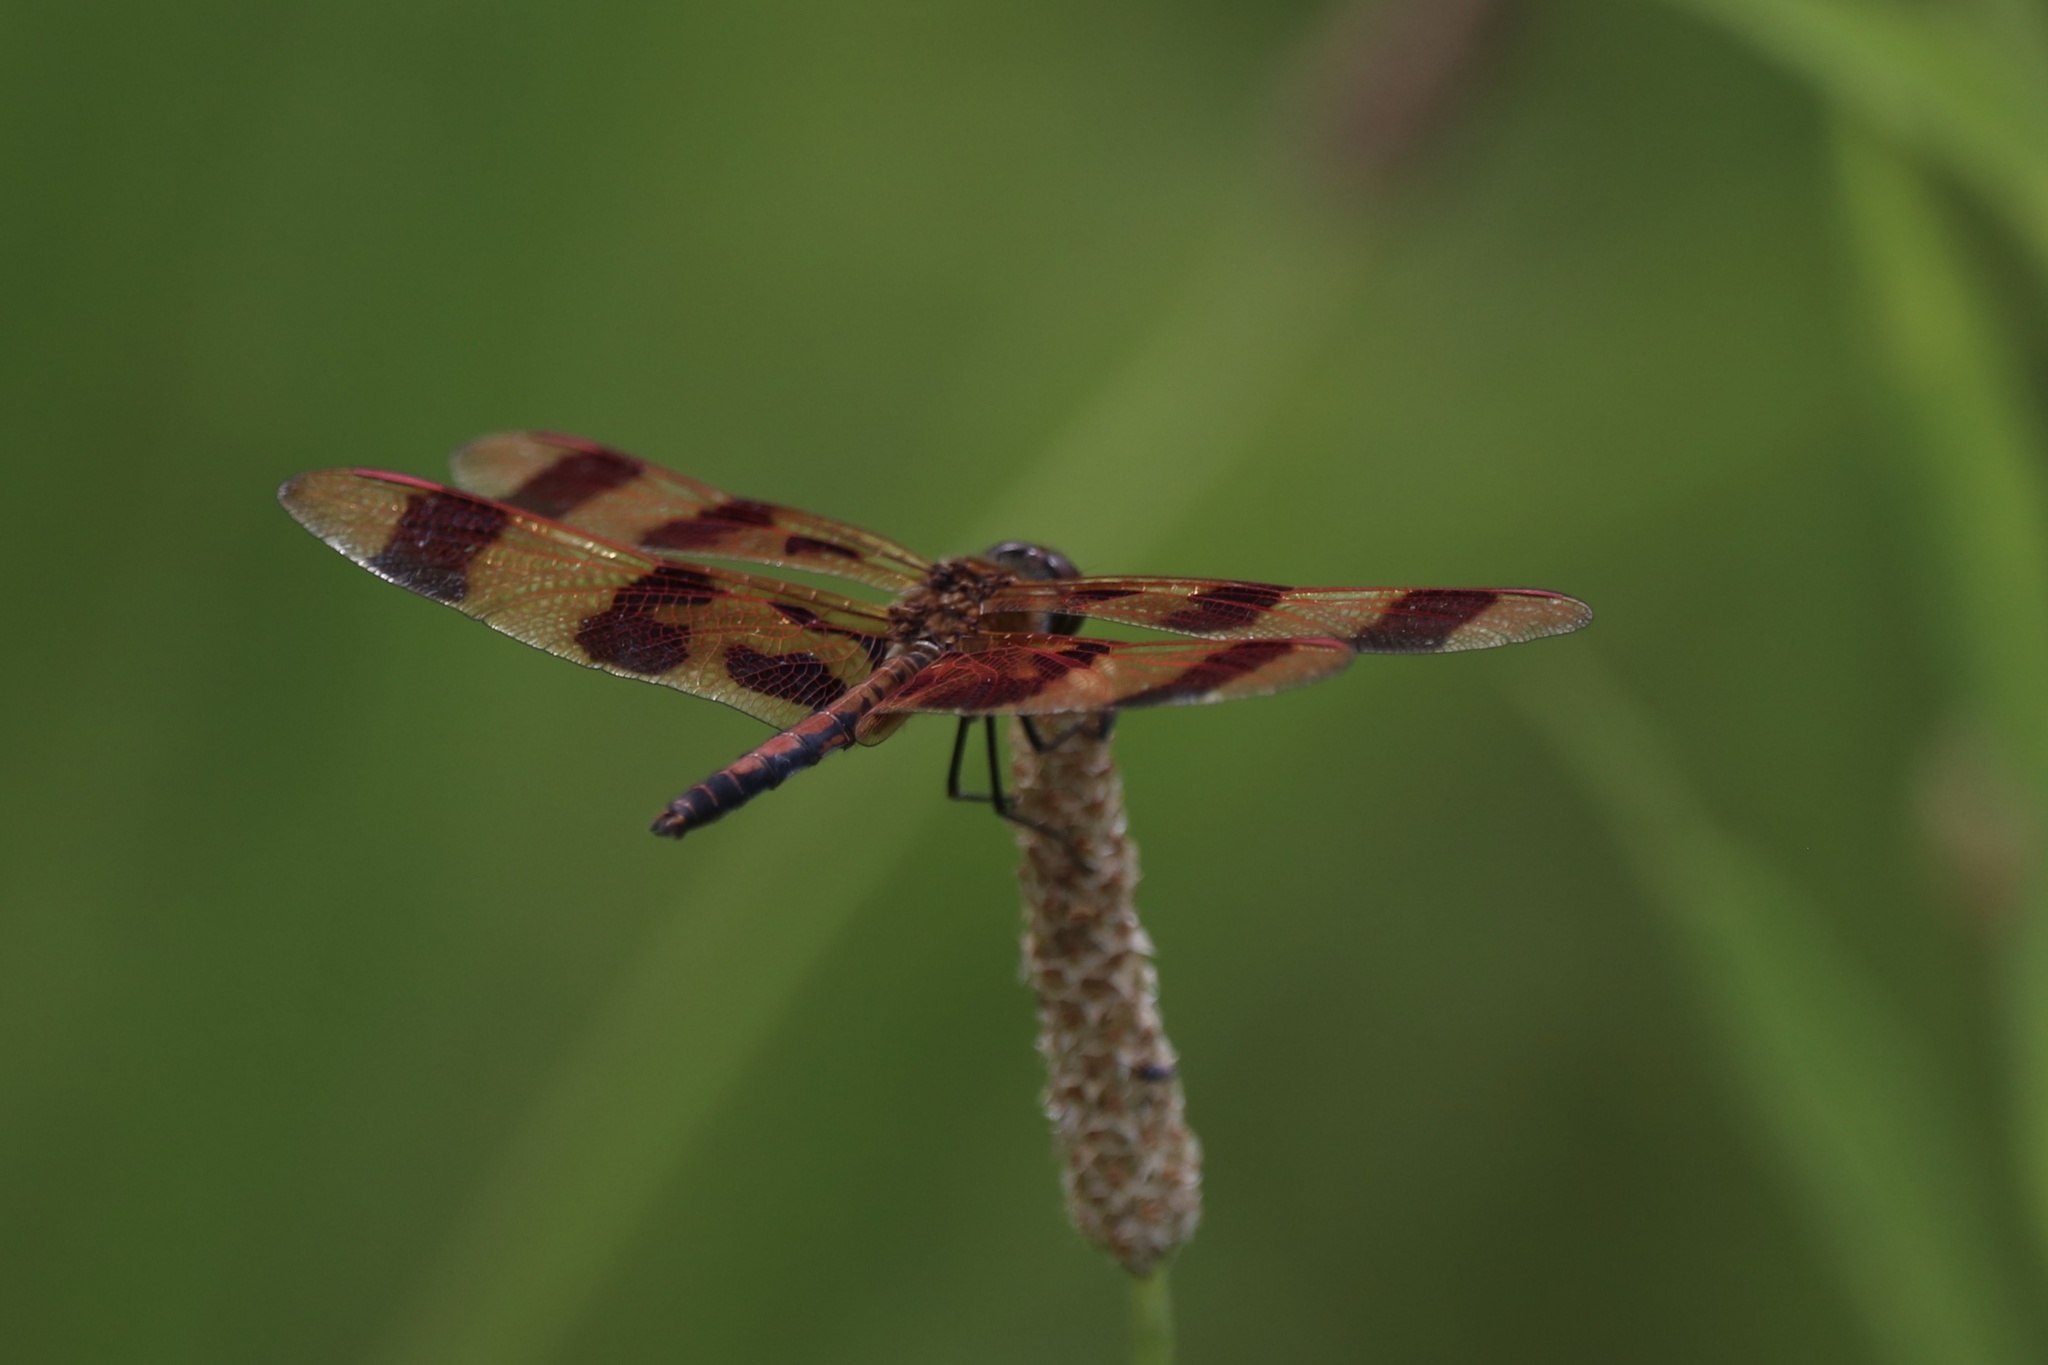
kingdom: Animalia
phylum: Arthropoda
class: Insecta
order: Odonata
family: Libellulidae
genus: Celithemis
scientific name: Celithemis eponina
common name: Halloween pennant
